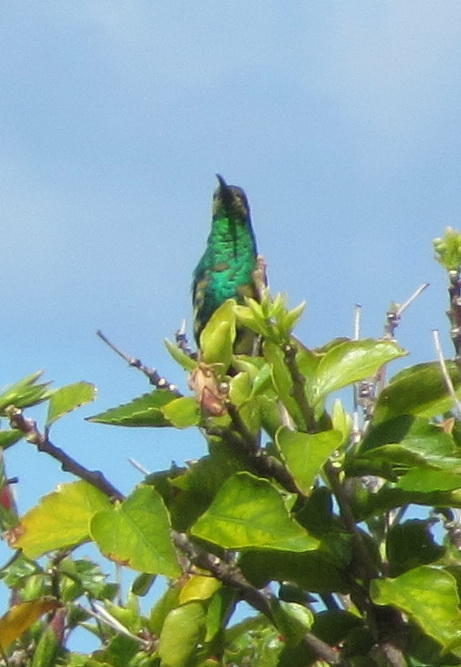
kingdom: Animalia
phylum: Chordata
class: Aves
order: Passeriformes
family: Nectariniidae
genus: Nectarinia
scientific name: Nectarinia famosa
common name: Malachite sunbird
